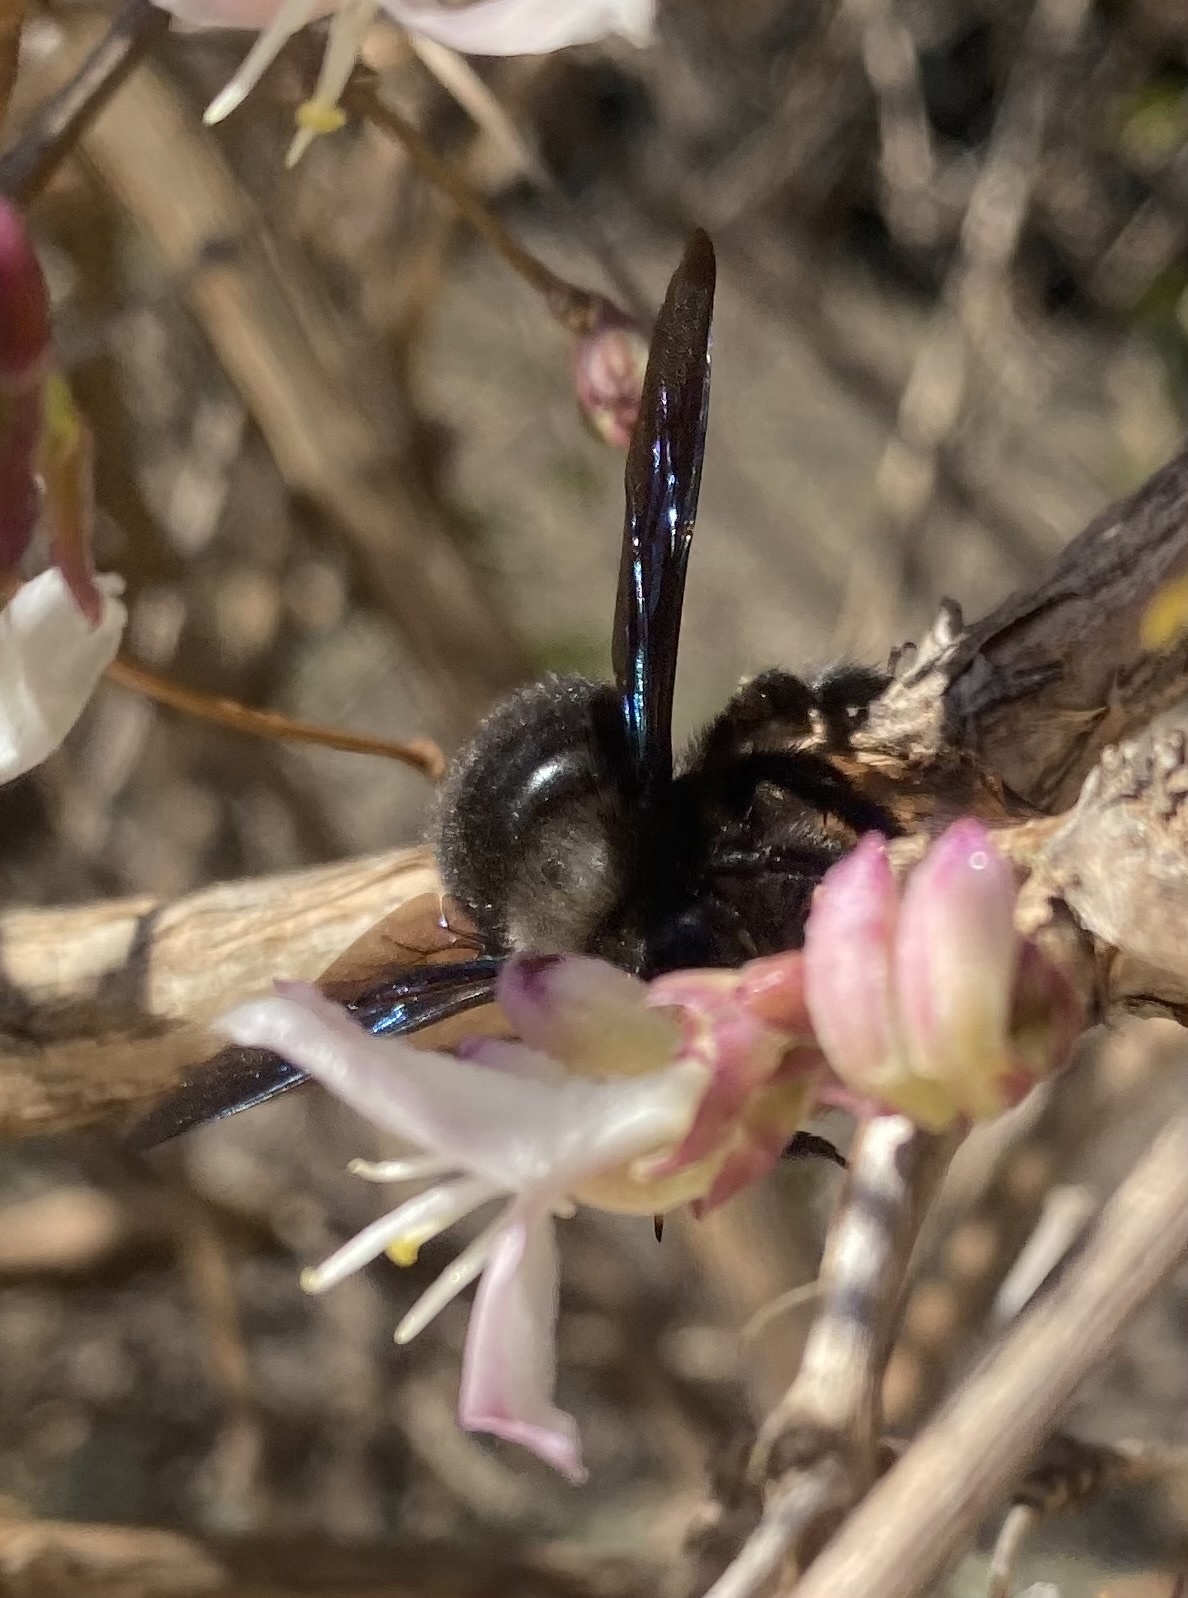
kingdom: Animalia
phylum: Arthropoda
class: Insecta
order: Hymenoptera
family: Apidae
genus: Xylocopa
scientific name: Xylocopa violacea
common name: Violet carpenter bee
